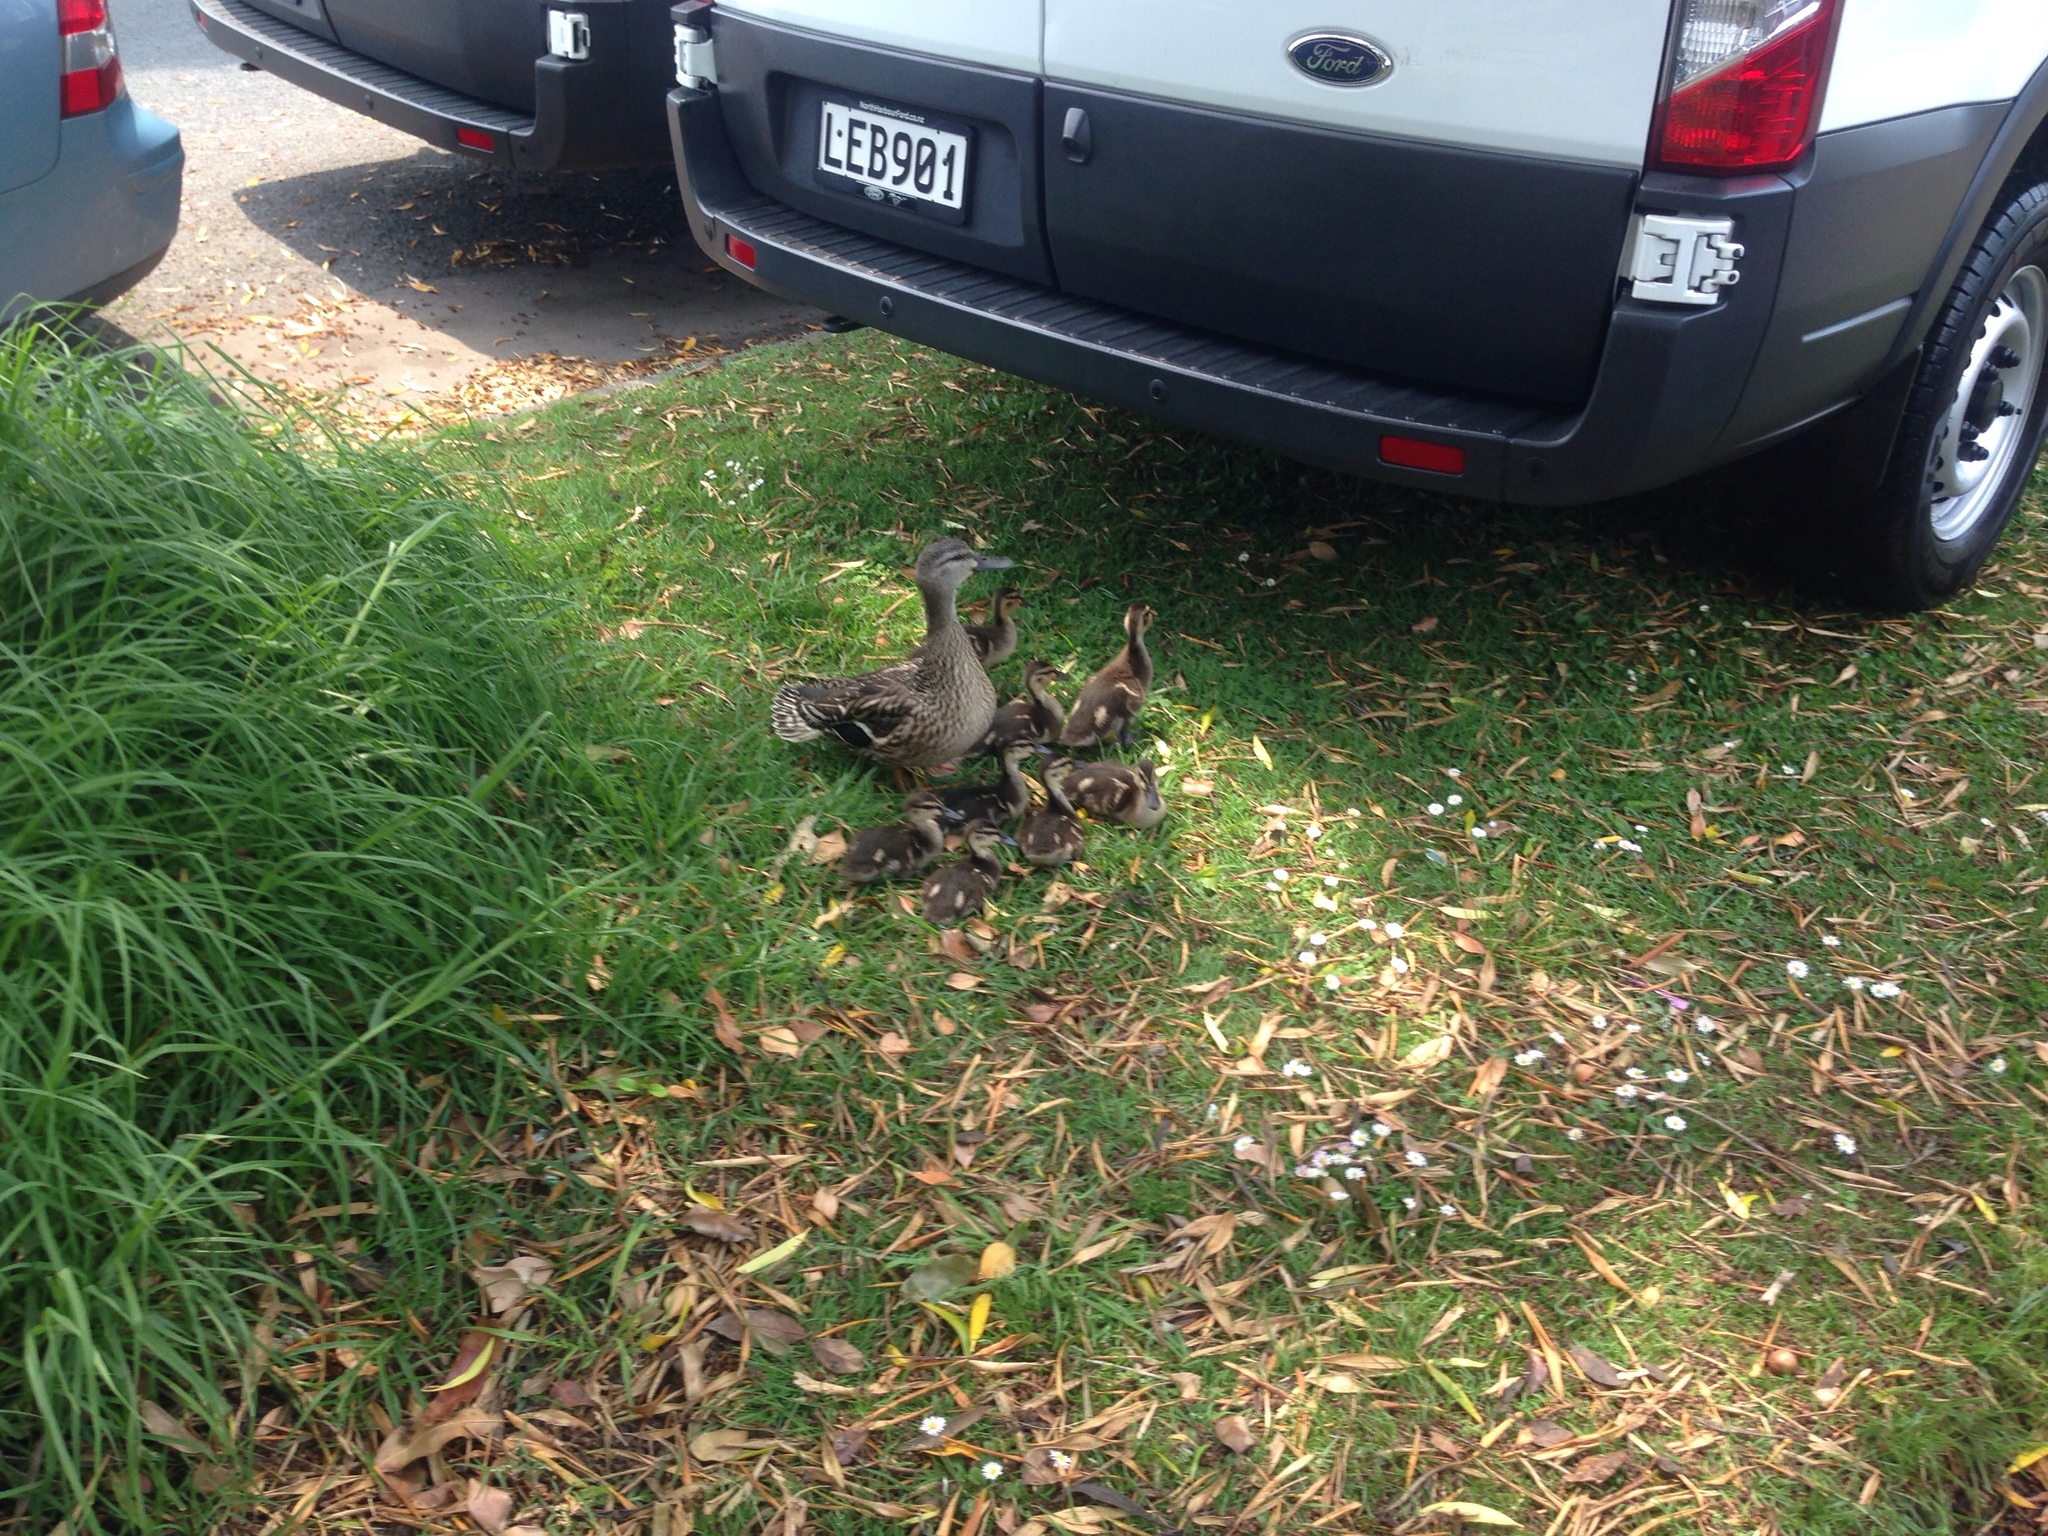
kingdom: Animalia
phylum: Chordata
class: Aves
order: Anseriformes
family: Anatidae
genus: Anas
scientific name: Anas
